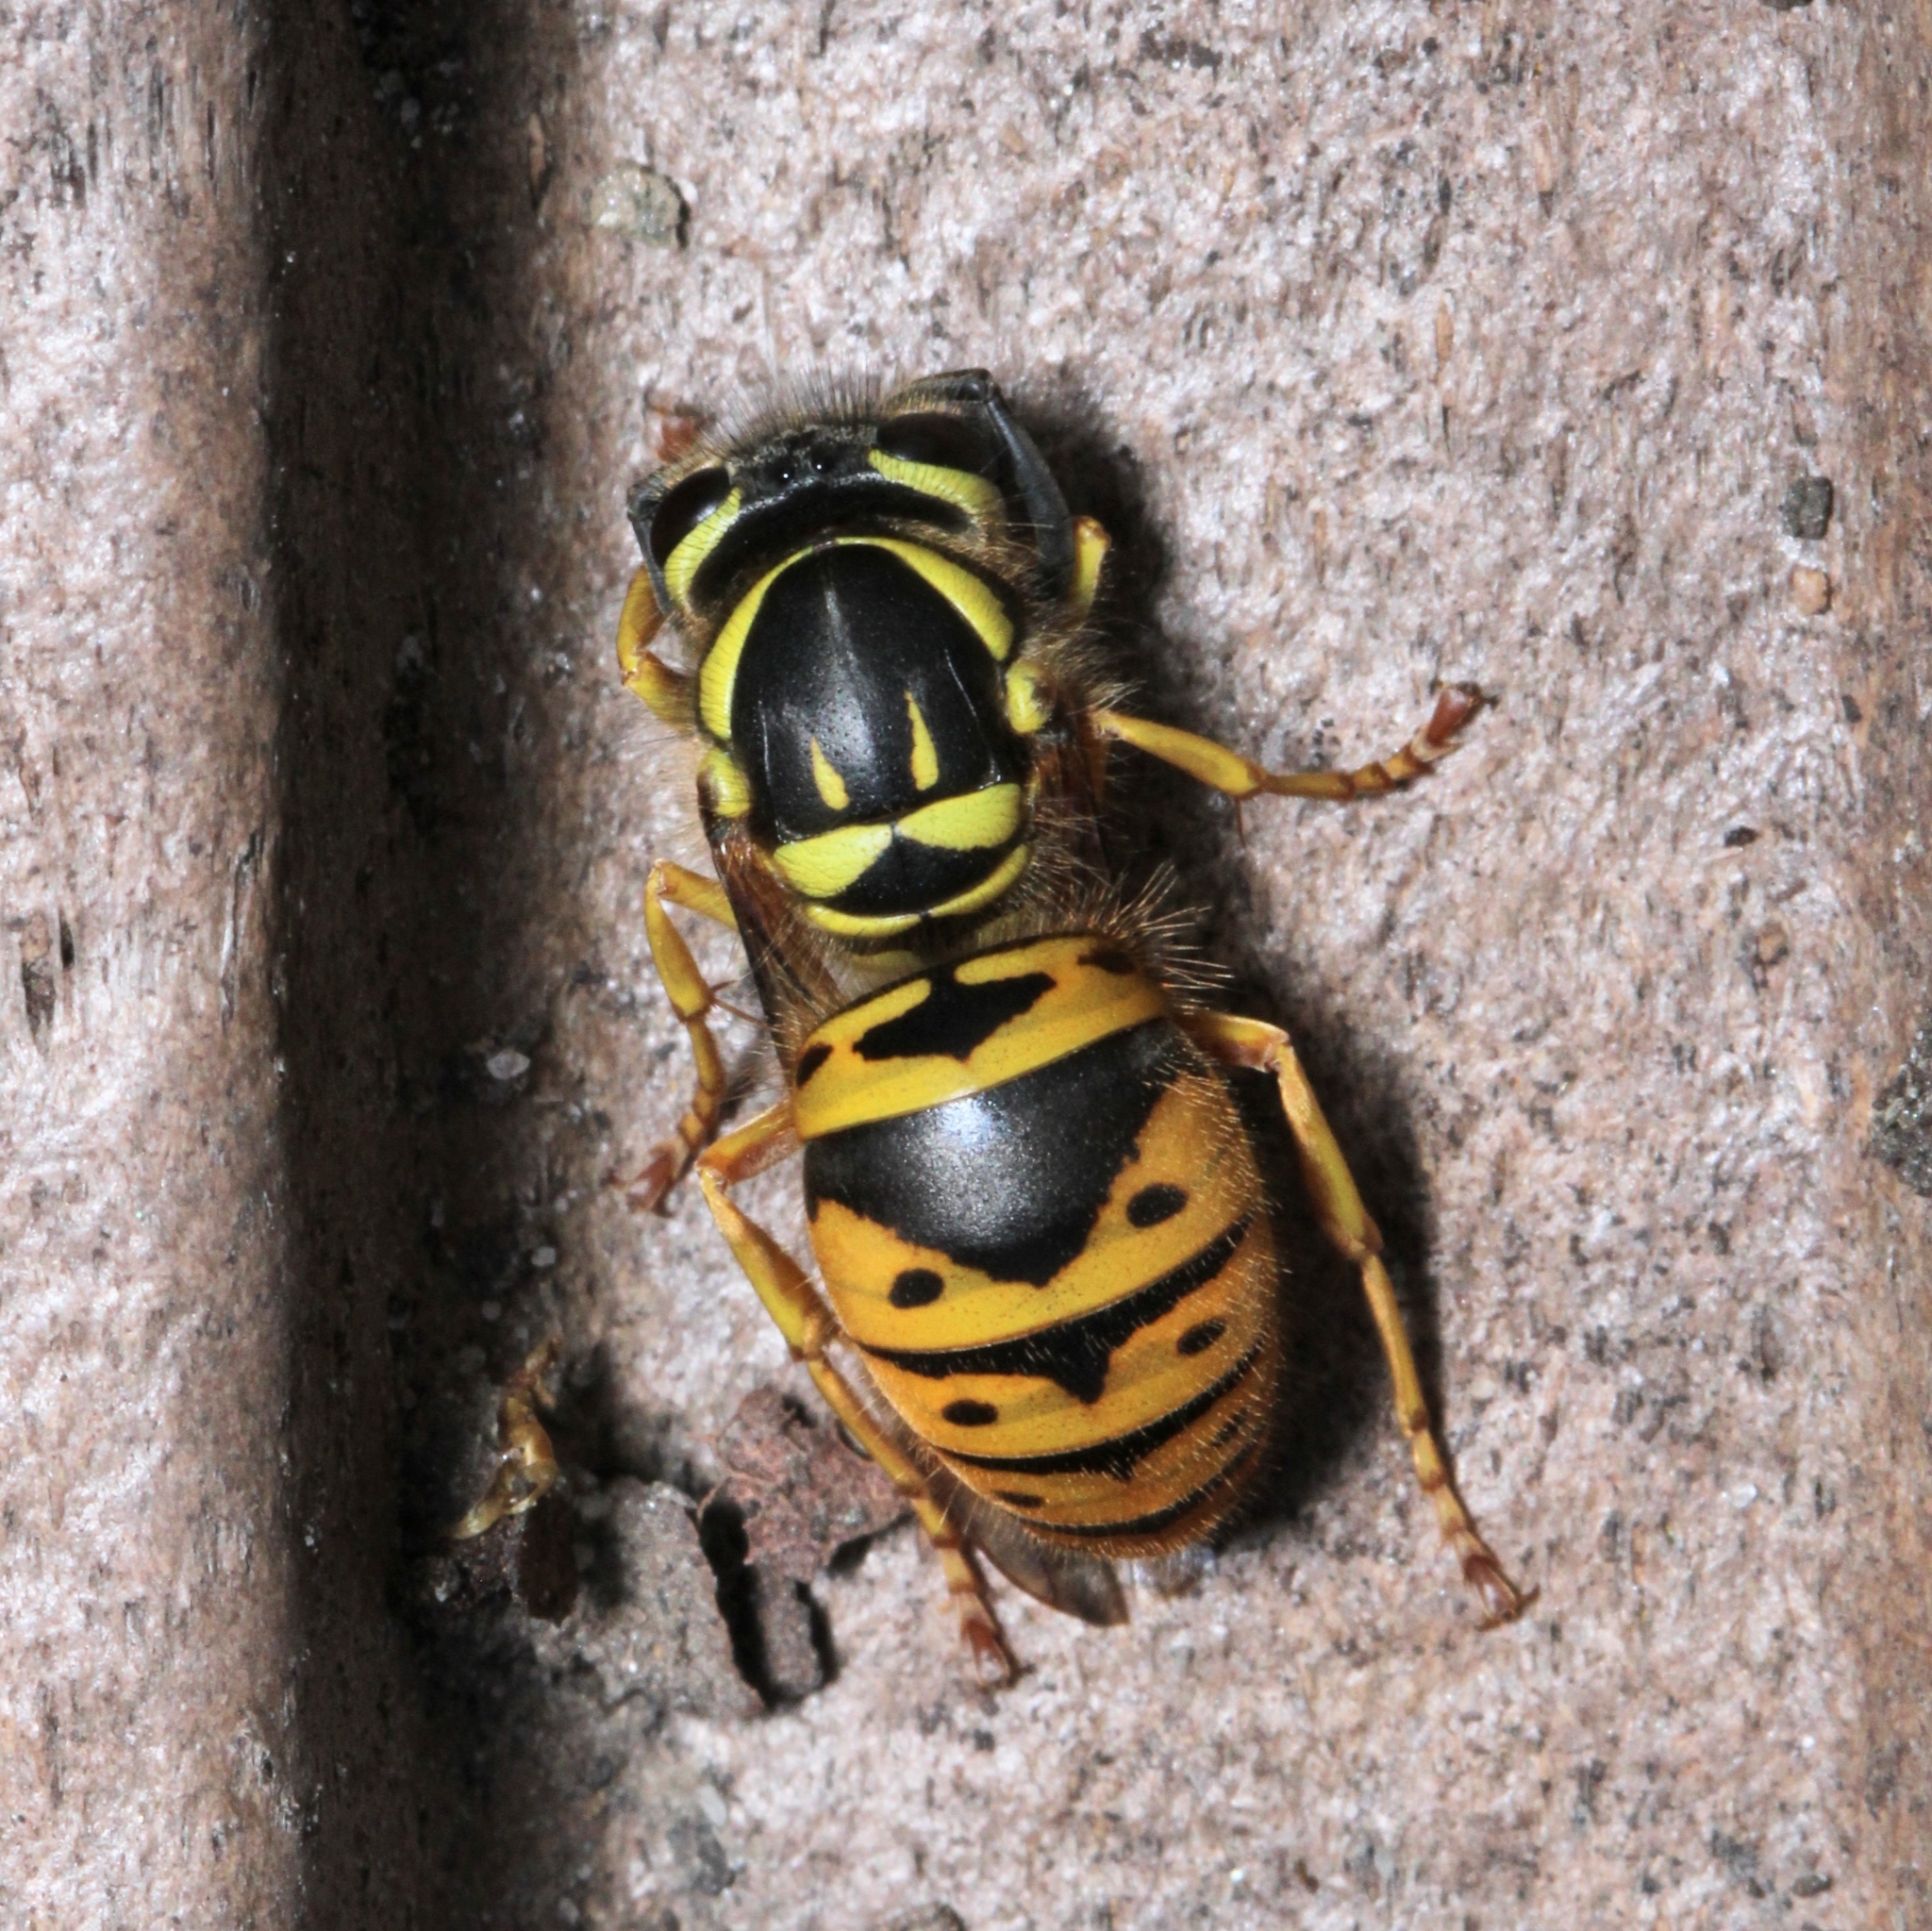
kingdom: Animalia
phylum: Arthropoda
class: Insecta
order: Hymenoptera
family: Vespidae
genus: Vespula
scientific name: Vespula maculifrons
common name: Eastern yellowjacket
